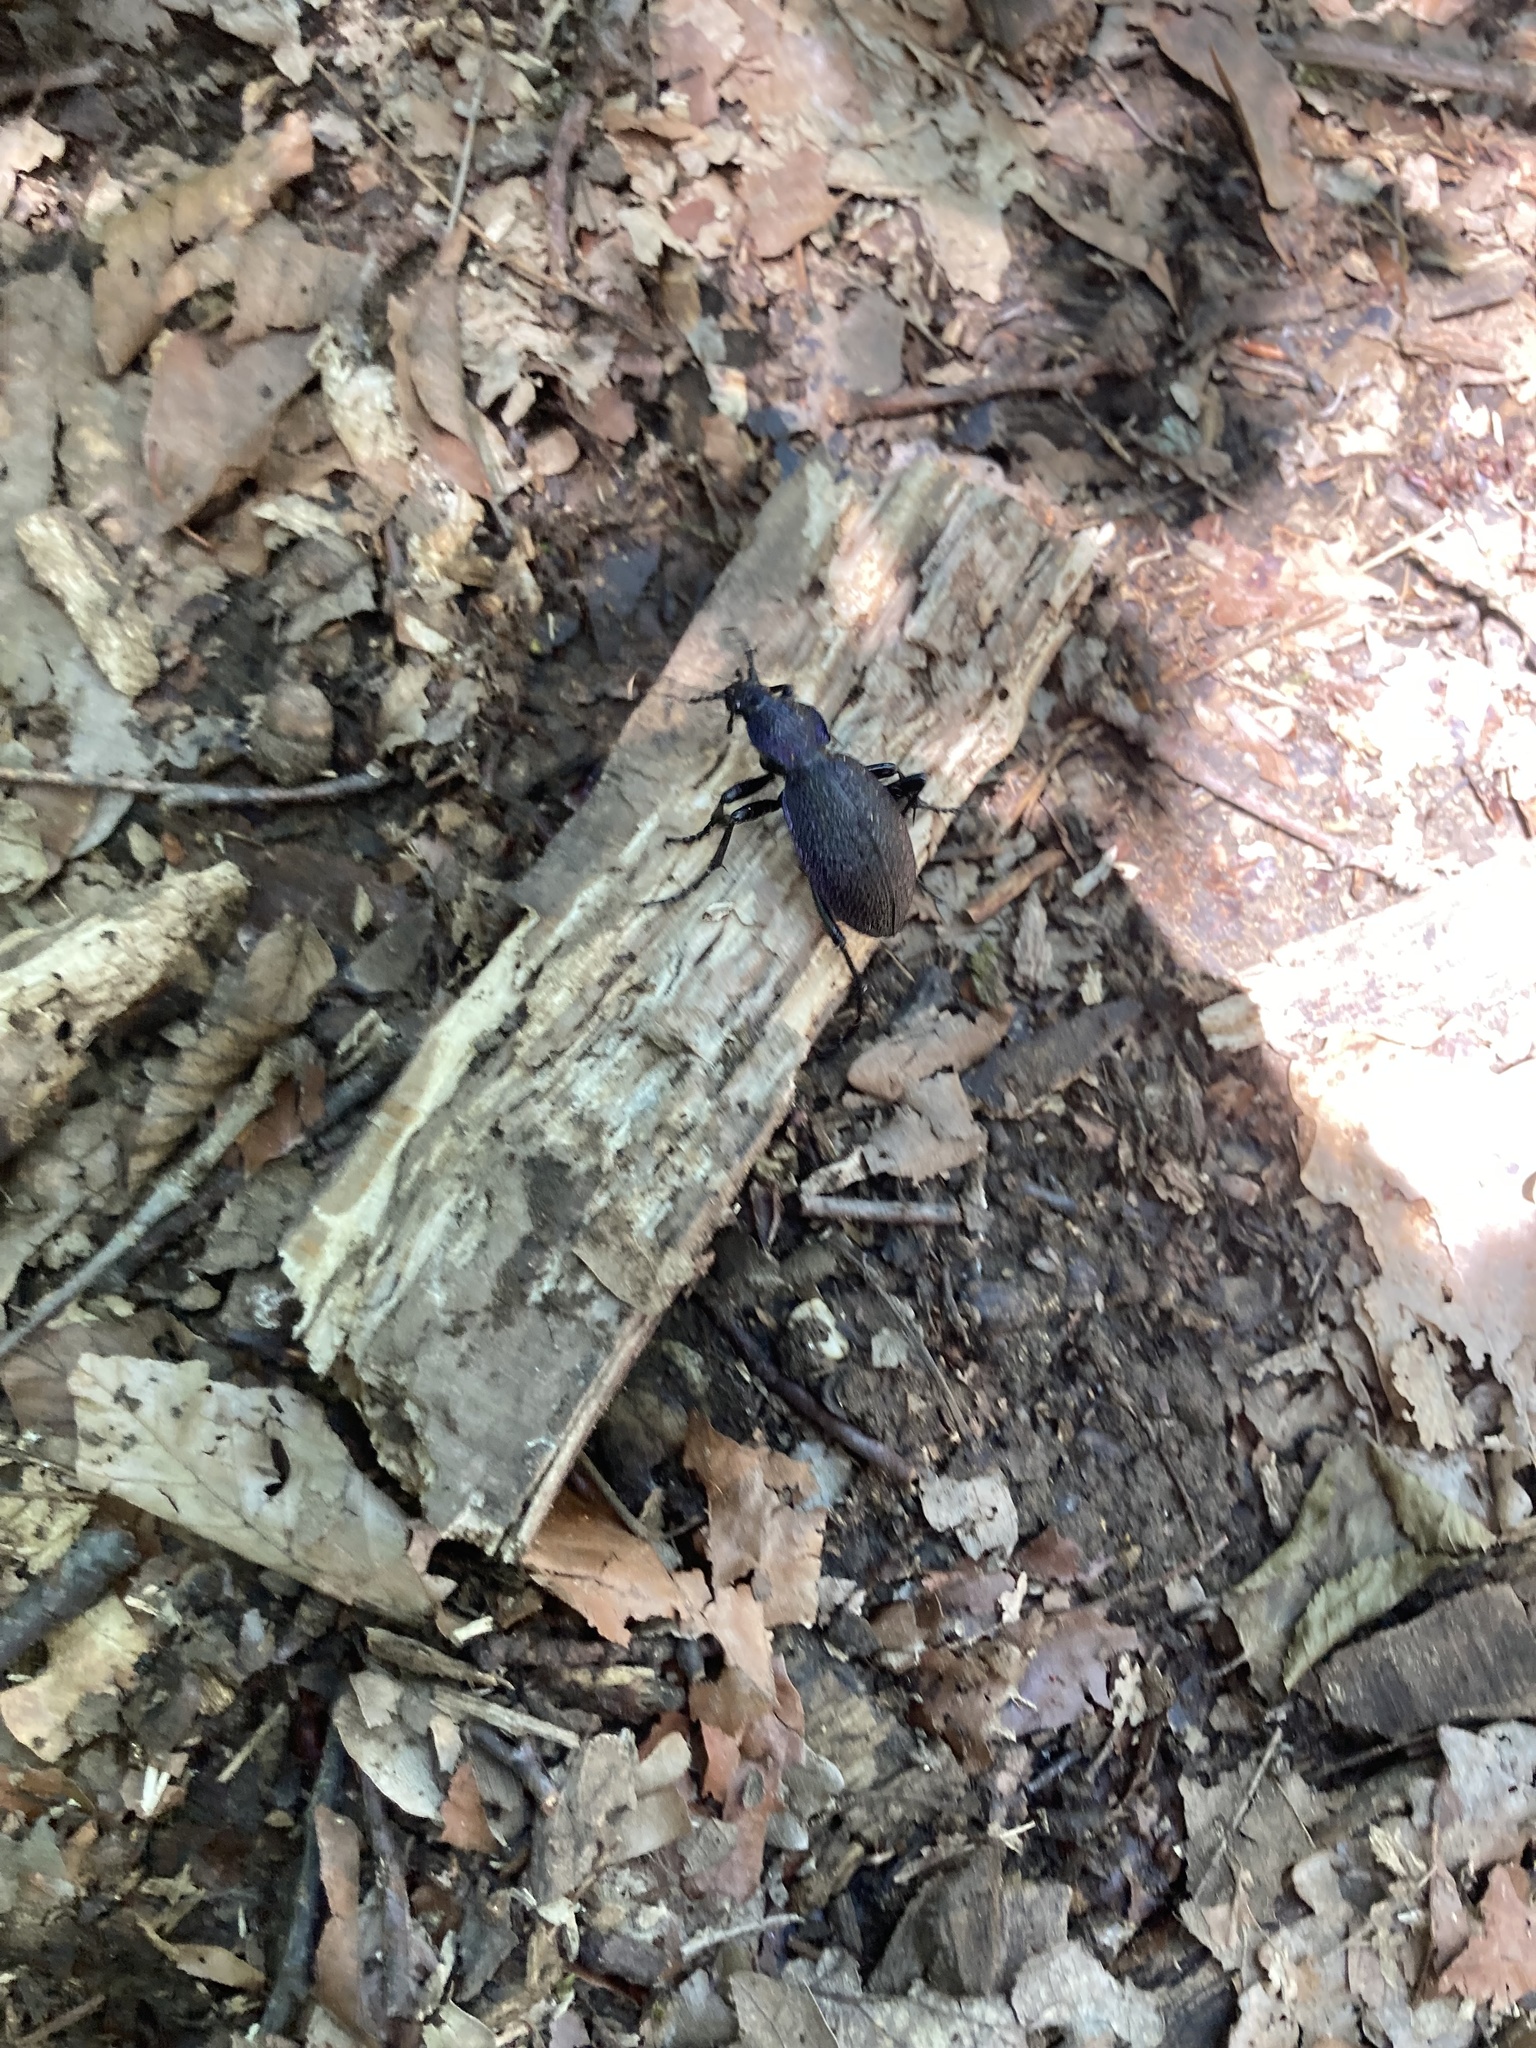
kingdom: Animalia
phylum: Arthropoda
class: Insecta
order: Coleoptera
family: Carabidae
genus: Carabus
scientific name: Carabus scabrosus
